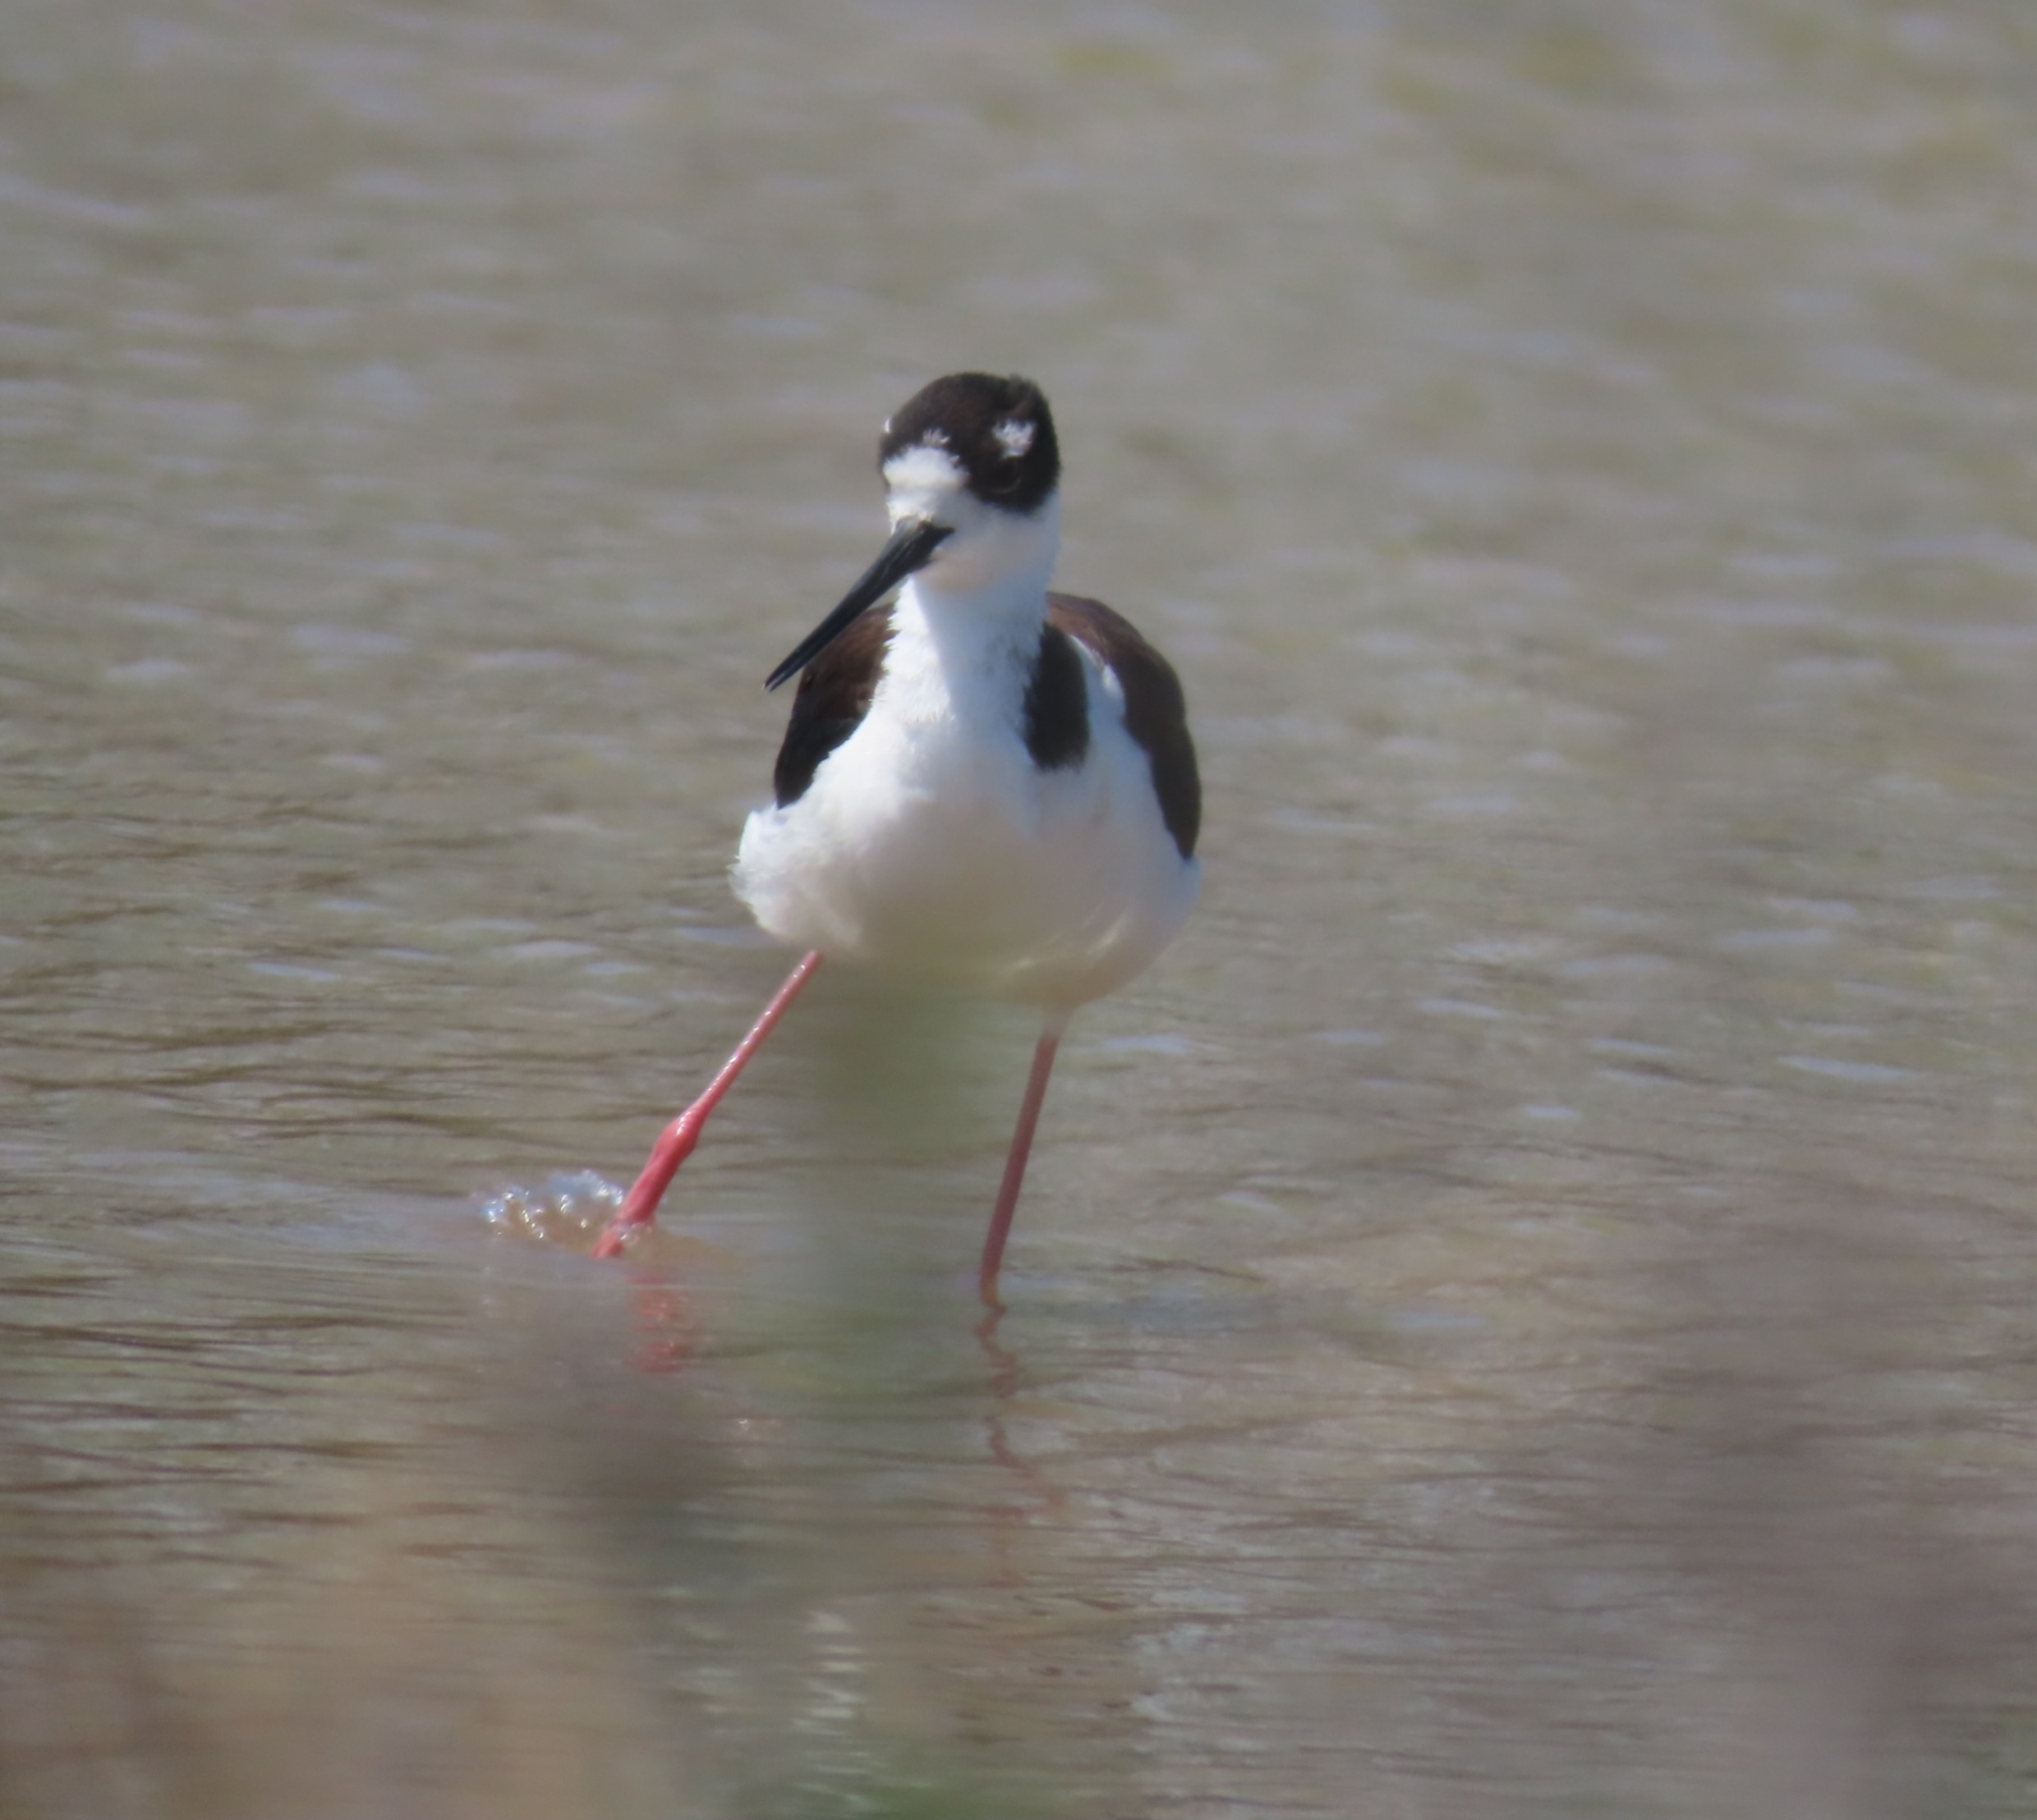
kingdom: Animalia
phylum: Chordata
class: Aves
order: Charadriiformes
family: Recurvirostridae
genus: Himantopus
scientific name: Himantopus mexicanus
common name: Black-necked stilt
